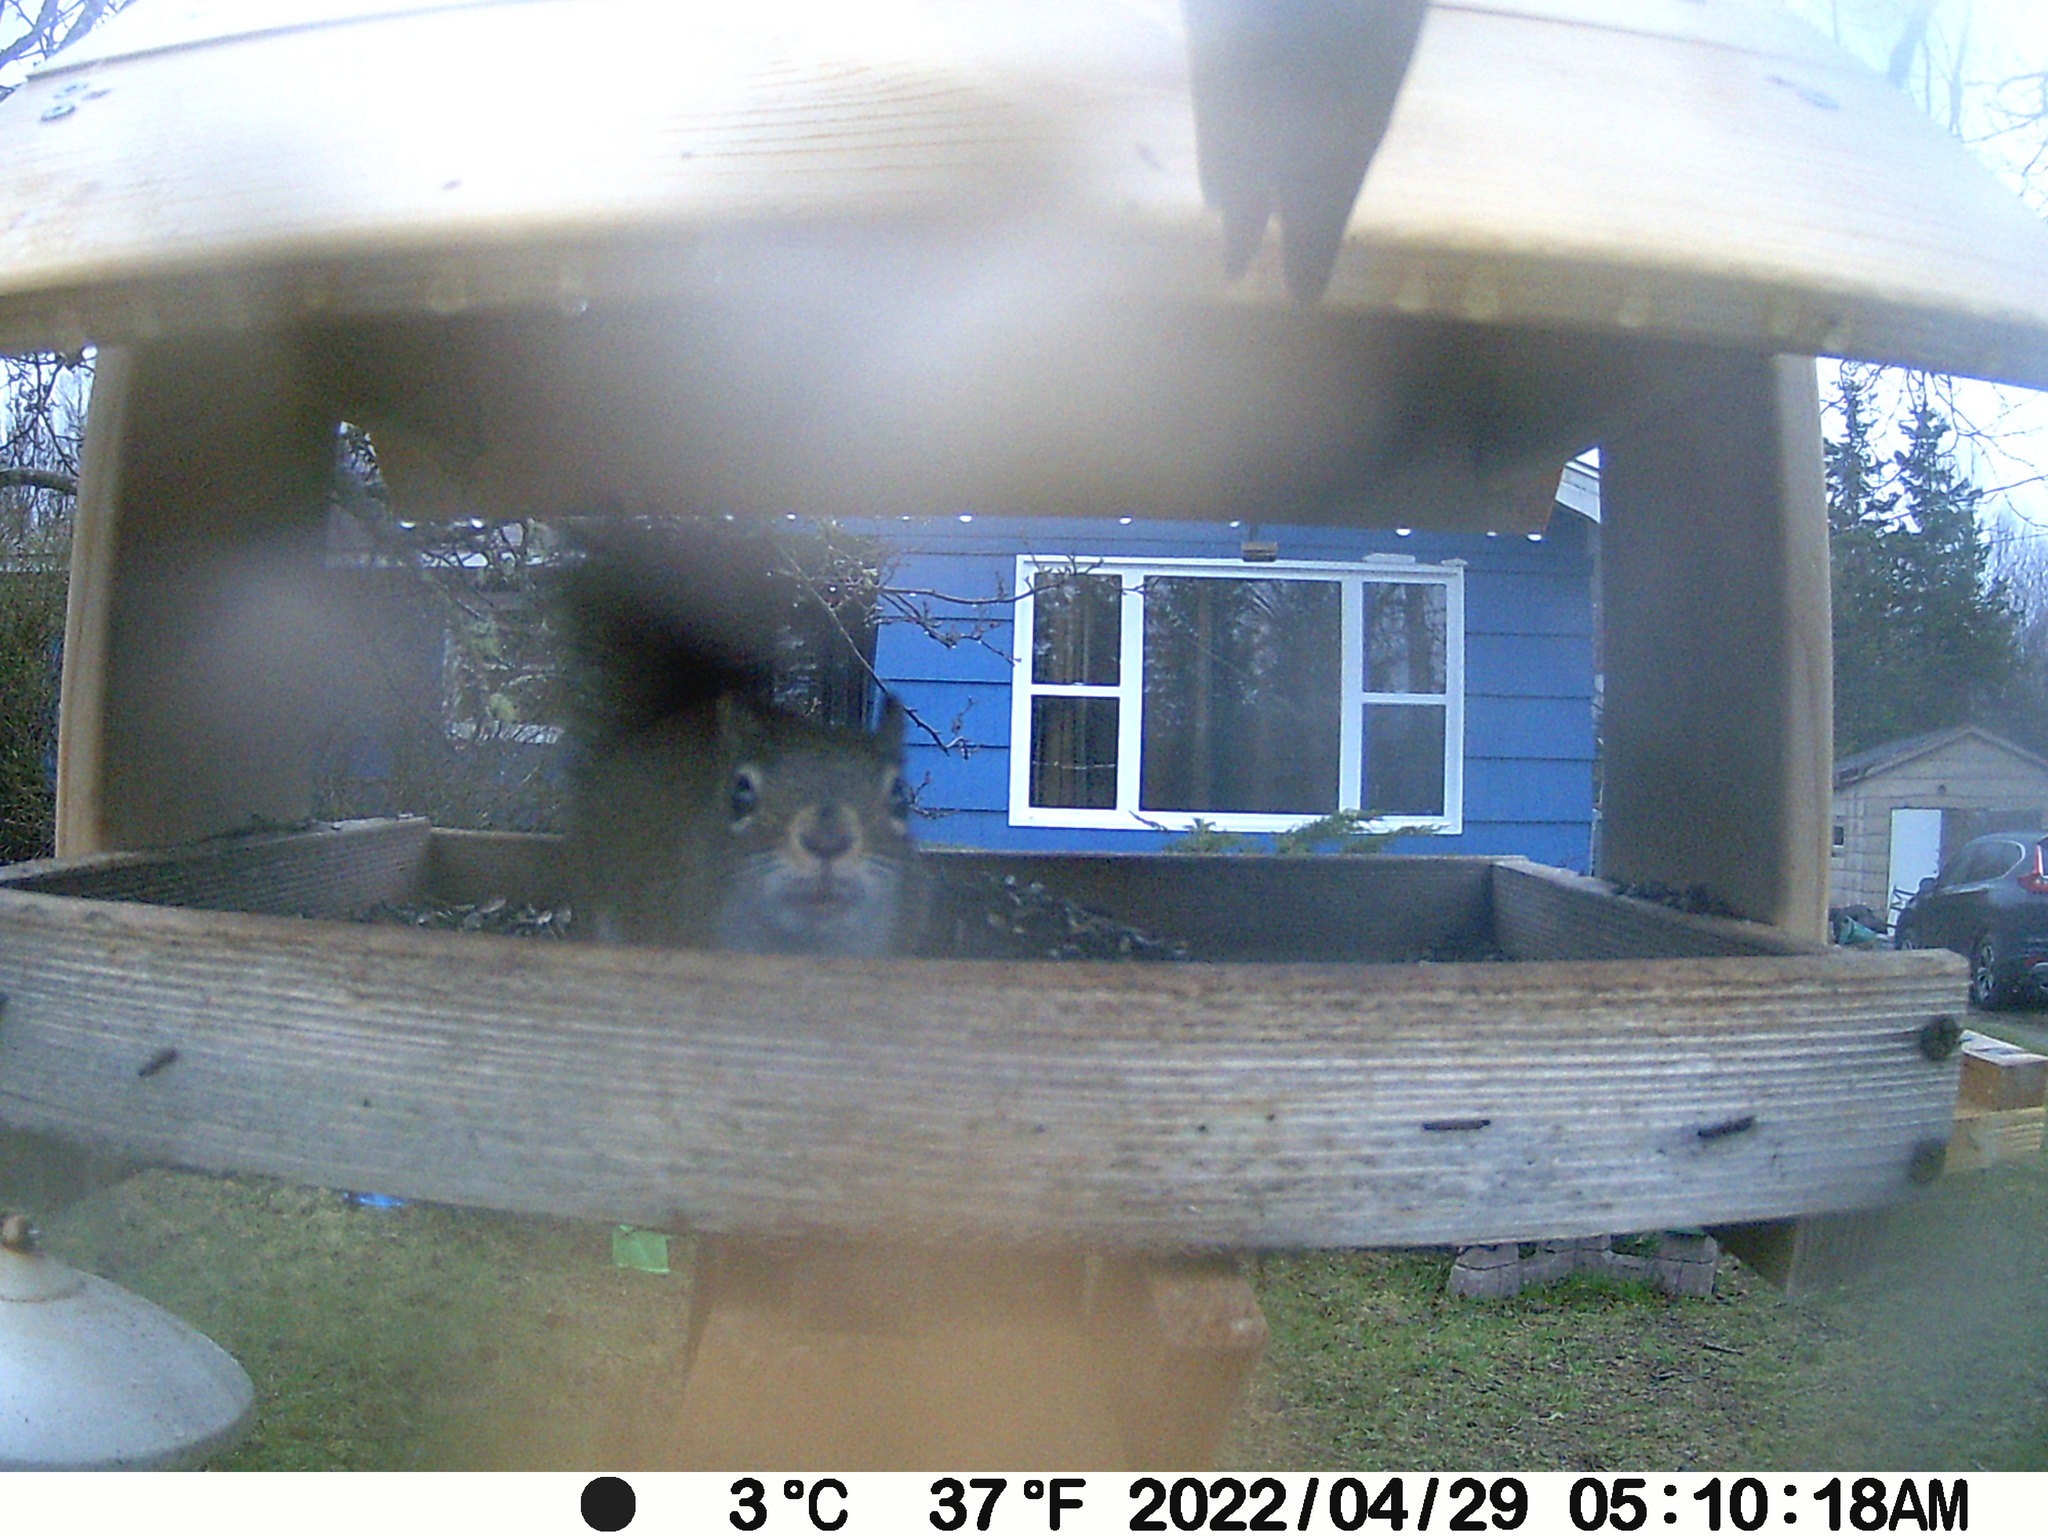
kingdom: Animalia
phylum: Chordata
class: Mammalia
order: Rodentia
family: Sciuridae
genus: Tamiasciurus
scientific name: Tamiasciurus hudsonicus
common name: Red squirrel
